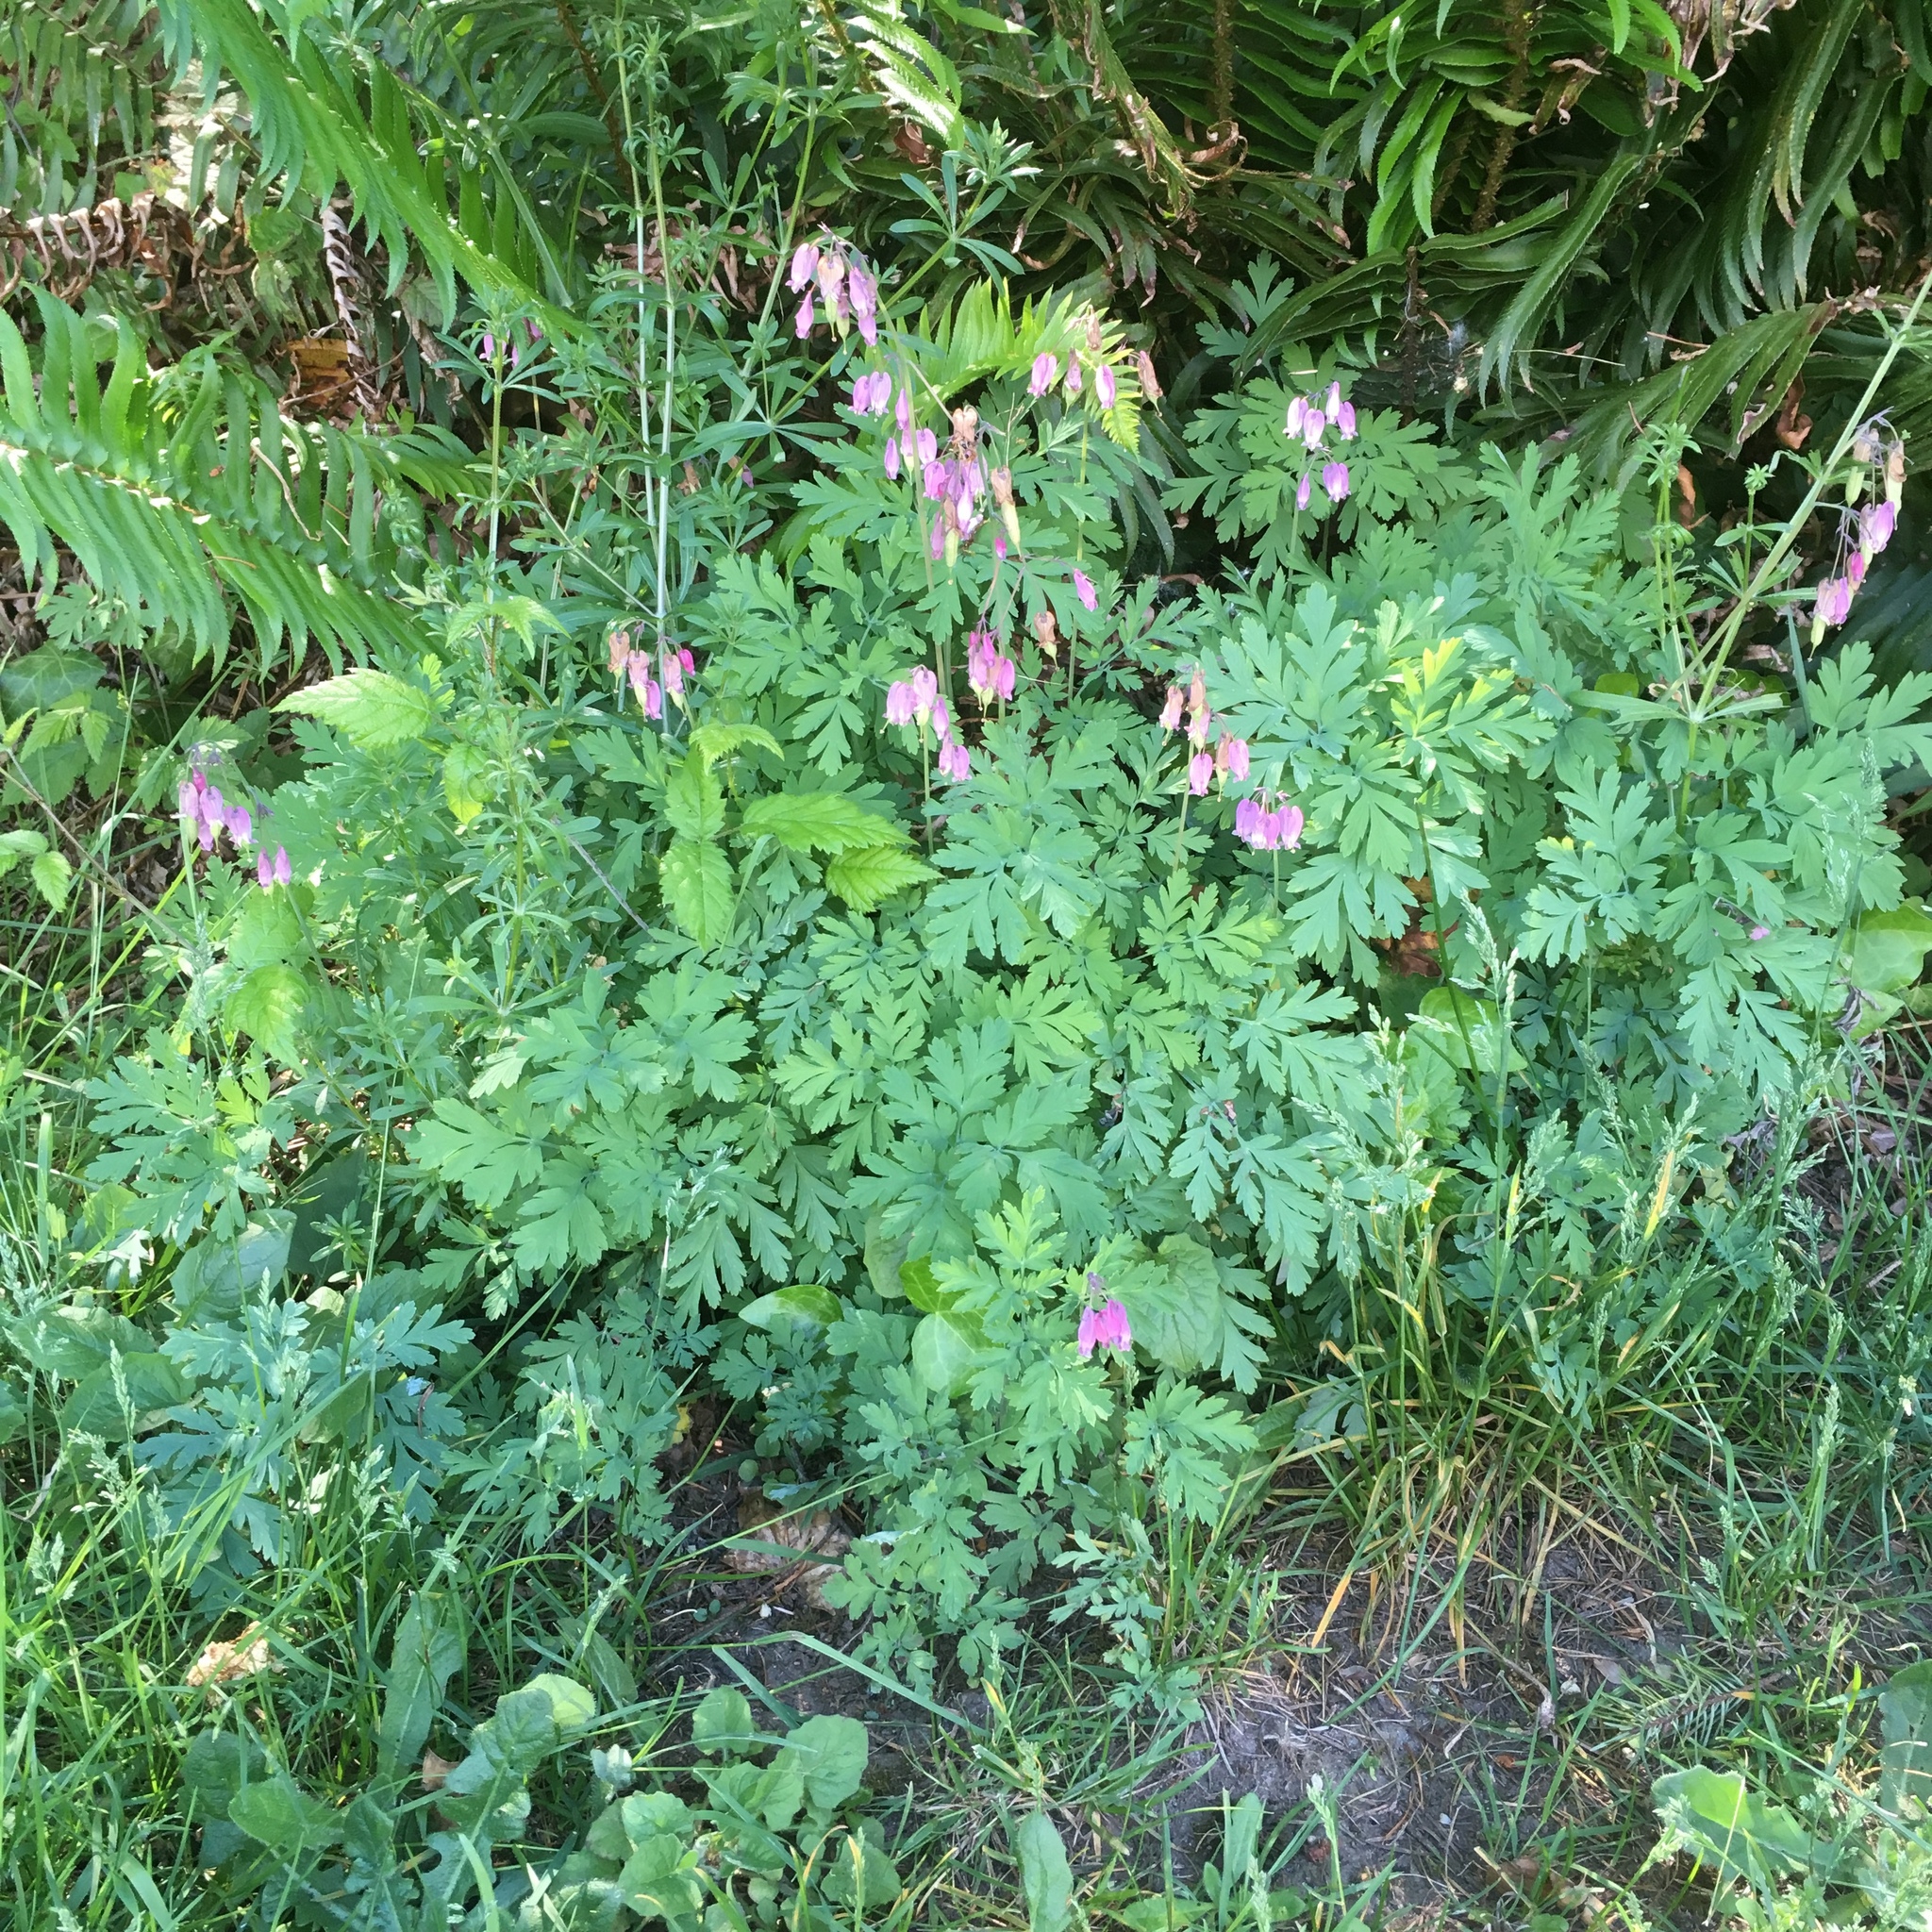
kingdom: Plantae
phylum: Tracheophyta
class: Magnoliopsida
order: Ranunculales
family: Papaveraceae
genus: Dicentra
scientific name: Dicentra formosa
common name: Bleeding-heart
